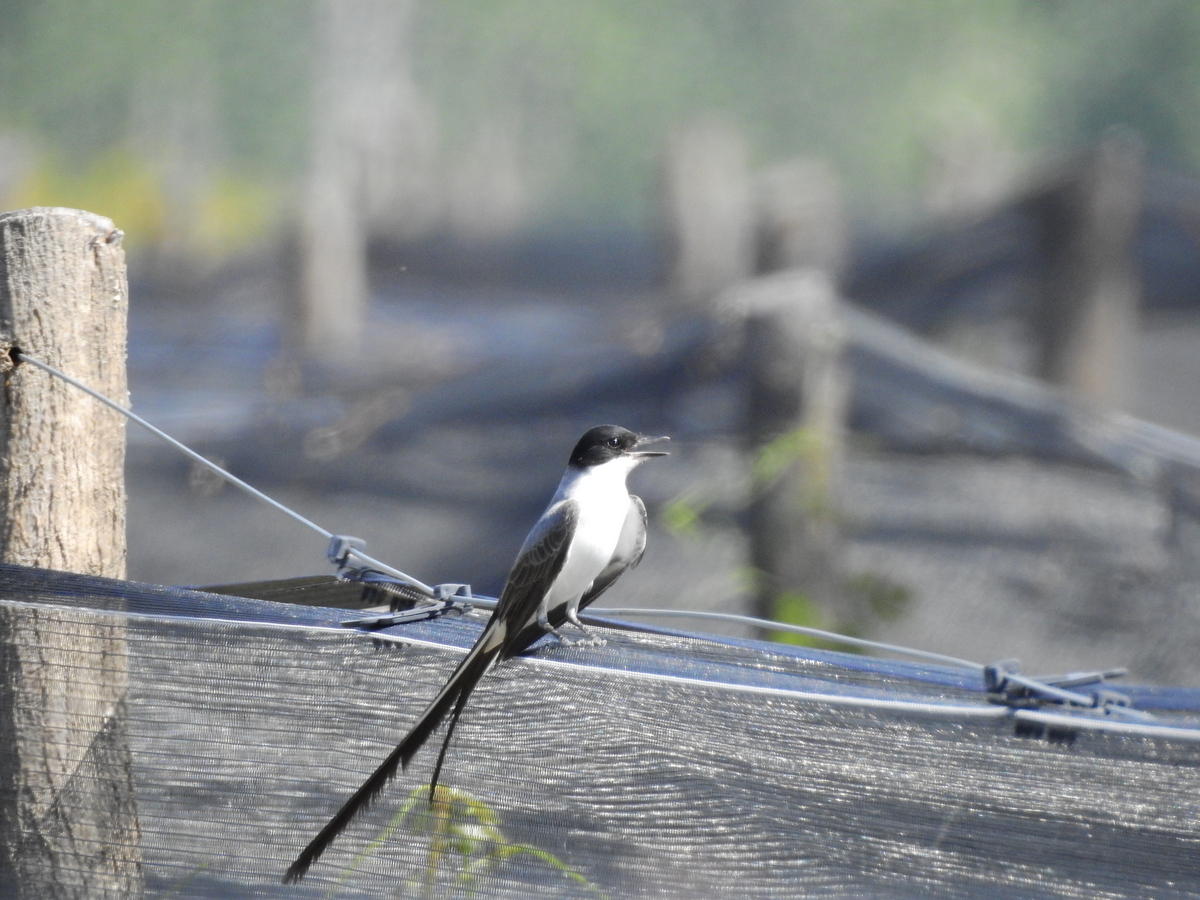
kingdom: Animalia
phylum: Chordata
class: Aves
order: Passeriformes
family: Tyrannidae
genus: Tyrannus
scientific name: Tyrannus savana
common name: Fork-tailed flycatcher
